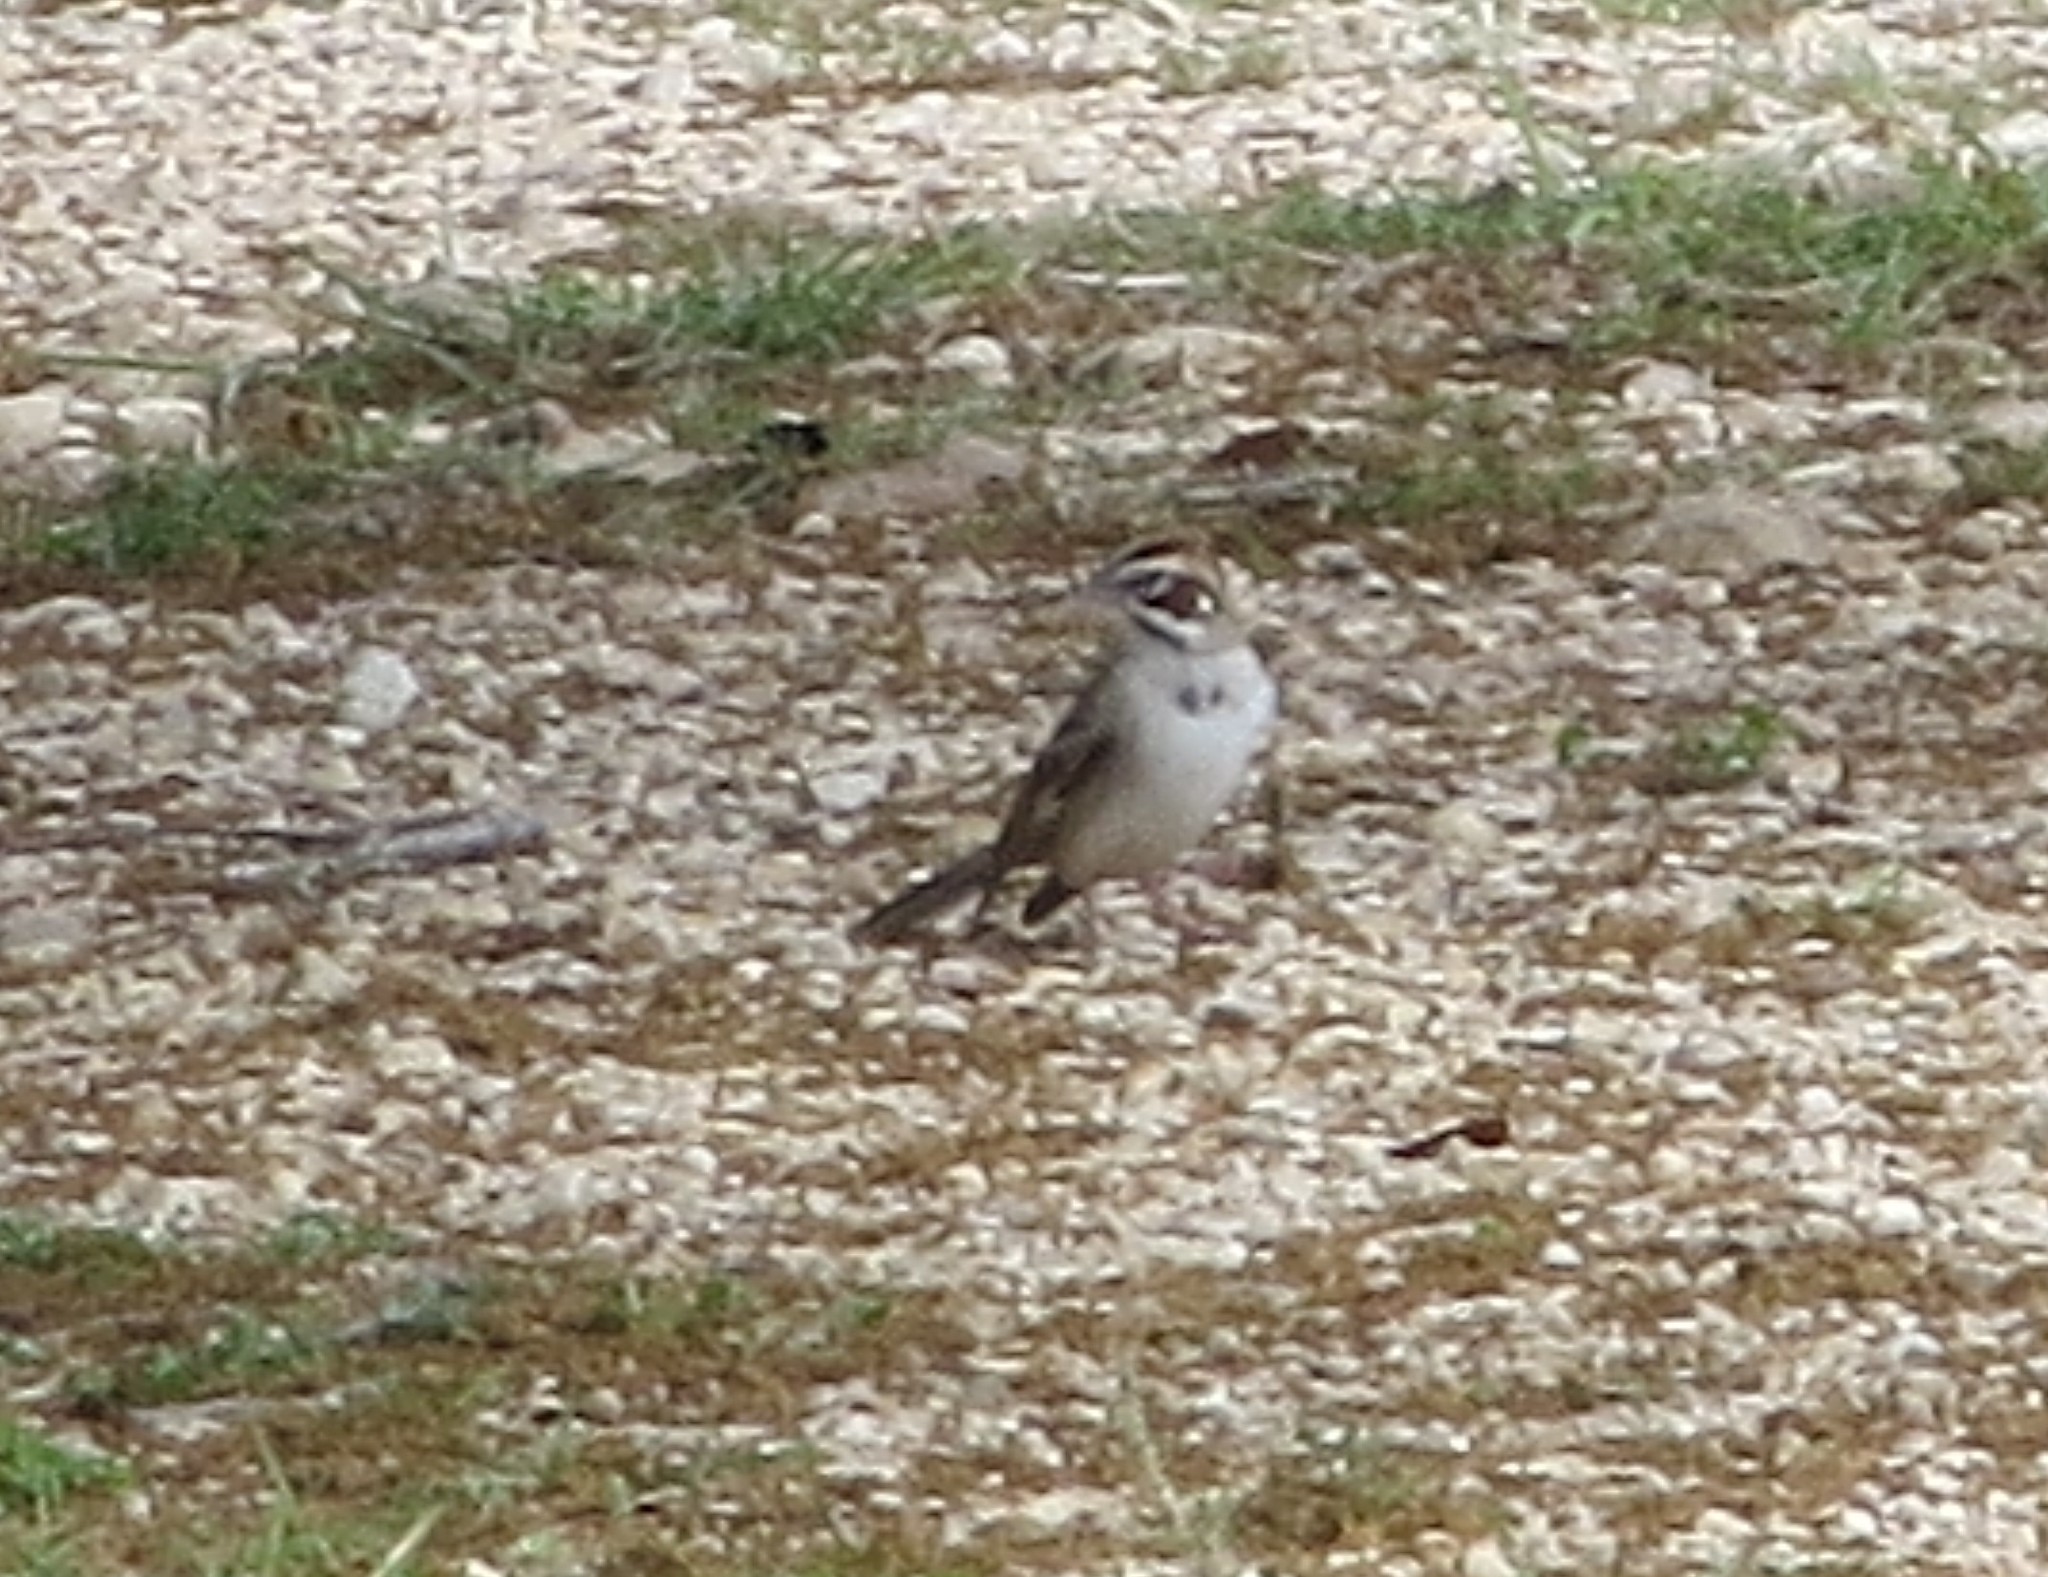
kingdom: Animalia
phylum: Chordata
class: Aves
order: Passeriformes
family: Passerellidae
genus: Chondestes
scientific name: Chondestes grammacus
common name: Lark sparrow
